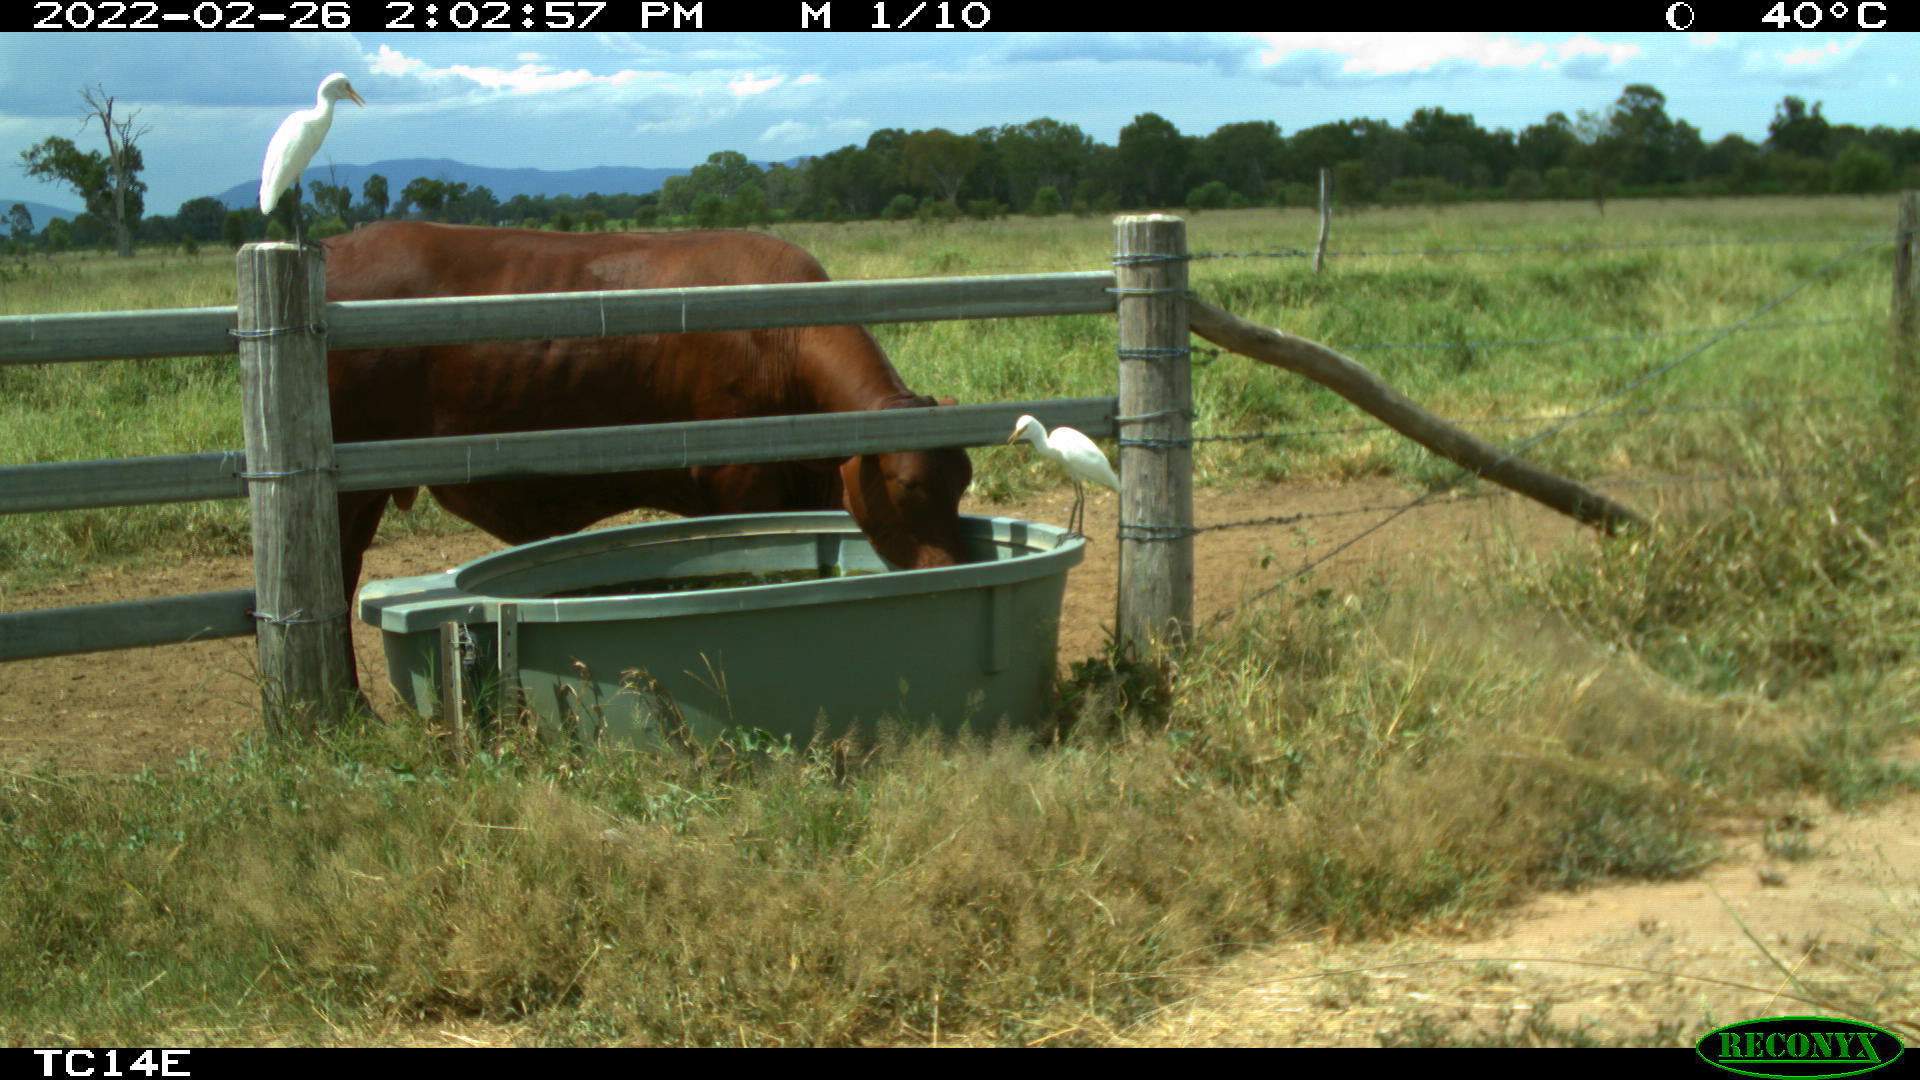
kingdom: Animalia
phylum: Chordata
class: Aves
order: Pelecaniformes
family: Ardeidae
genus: Bubulcus
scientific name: Bubulcus coromandus
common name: Eastern cattle egret
